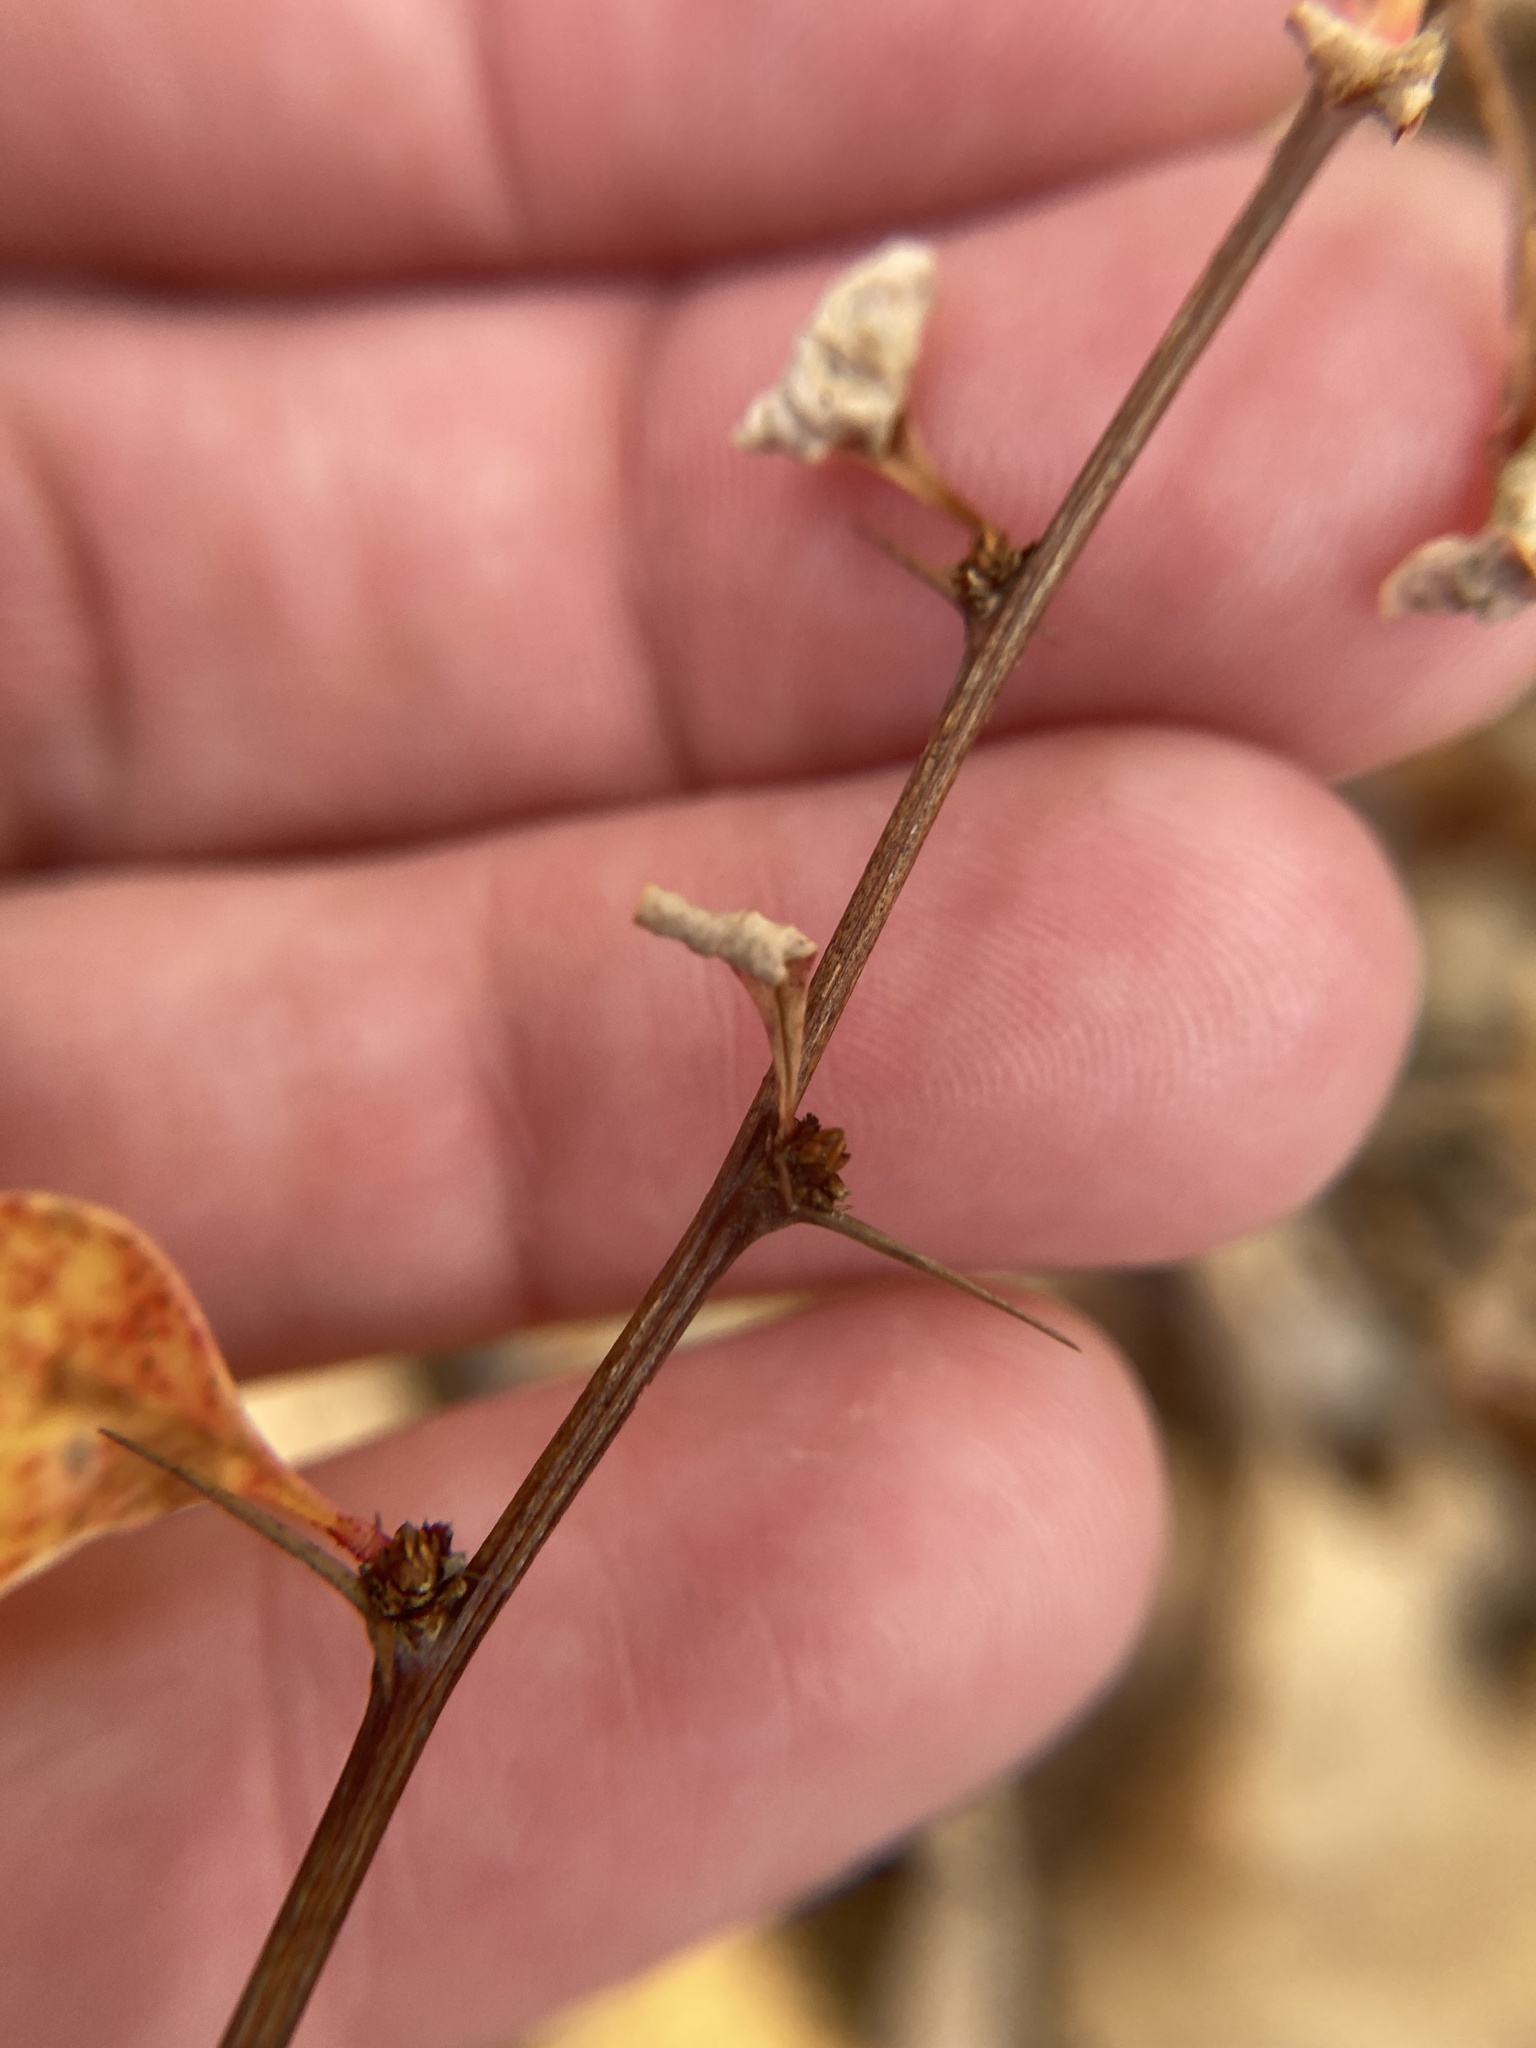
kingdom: Plantae
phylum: Tracheophyta
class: Magnoliopsida
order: Ranunculales
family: Berberidaceae
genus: Berberis
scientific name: Berberis thunbergii
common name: Japanese barberry
